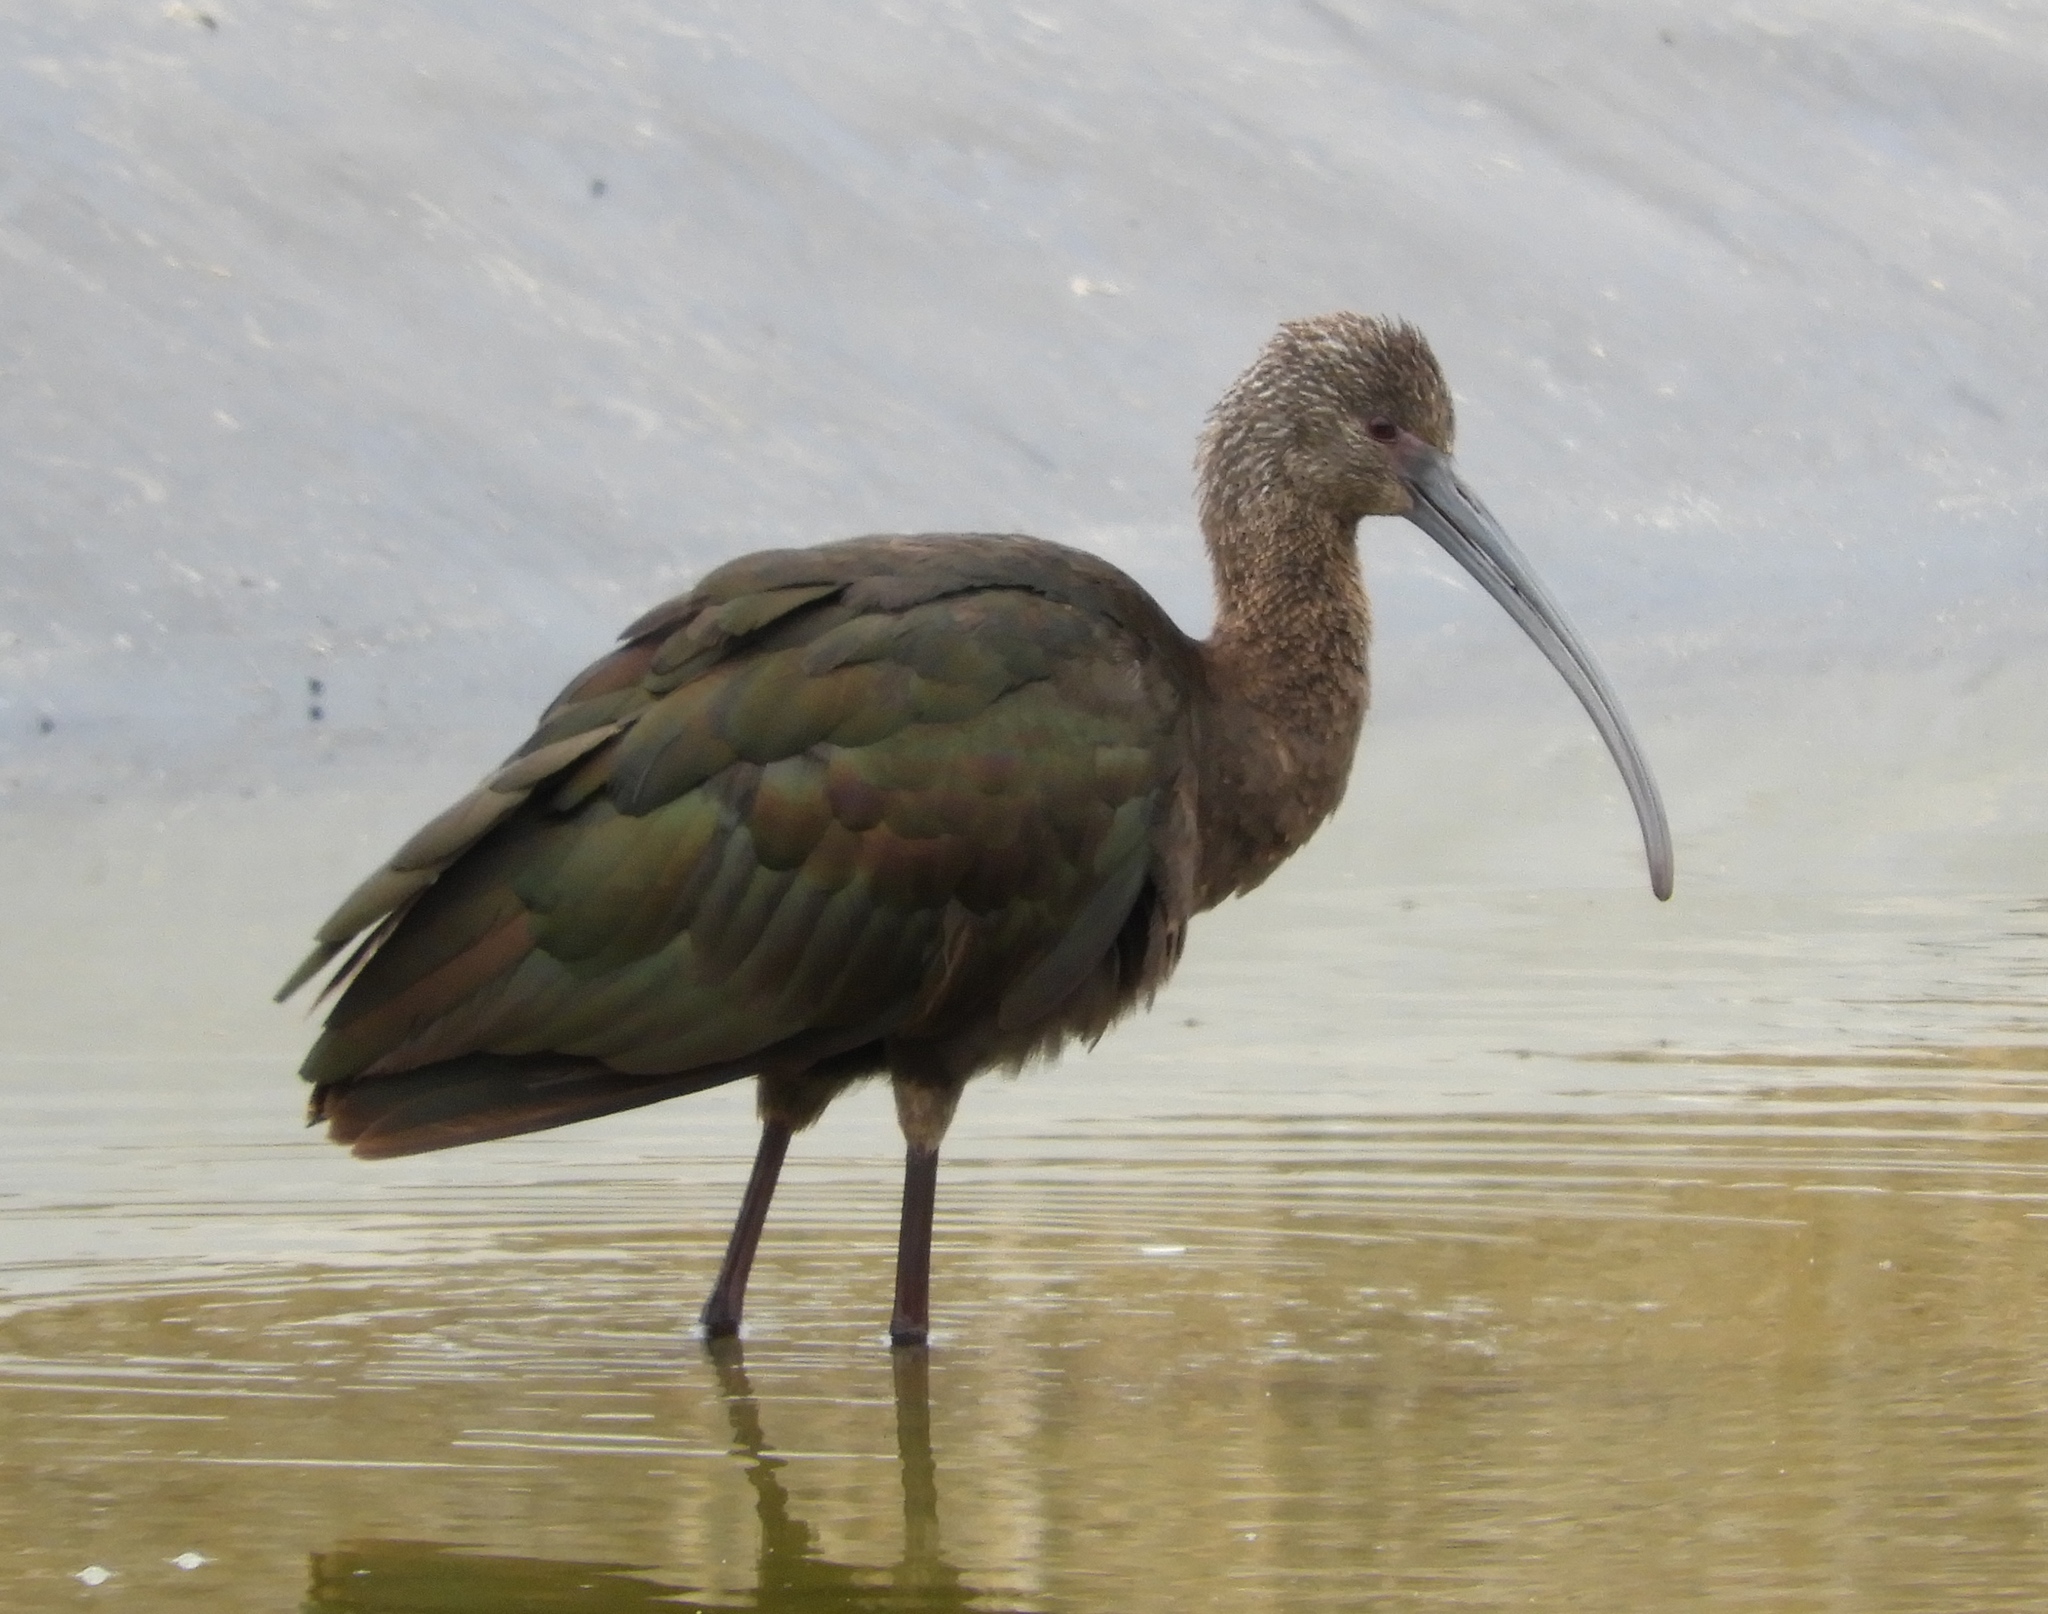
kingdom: Animalia
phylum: Chordata
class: Aves
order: Pelecaniformes
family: Threskiornithidae
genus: Plegadis
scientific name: Plegadis chihi
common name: White-faced ibis
